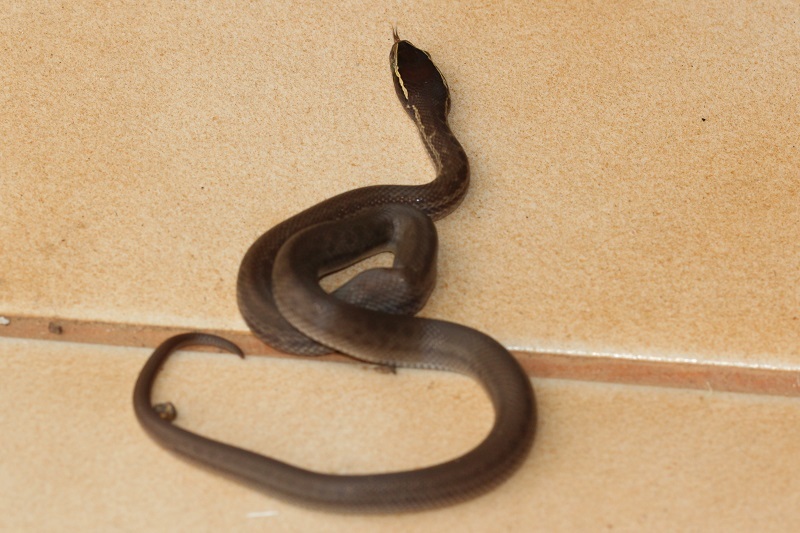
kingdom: Animalia
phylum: Chordata
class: Squamata
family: Lamprophiidae
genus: Boaedon
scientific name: Boaedon capensis
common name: Brown house snake
